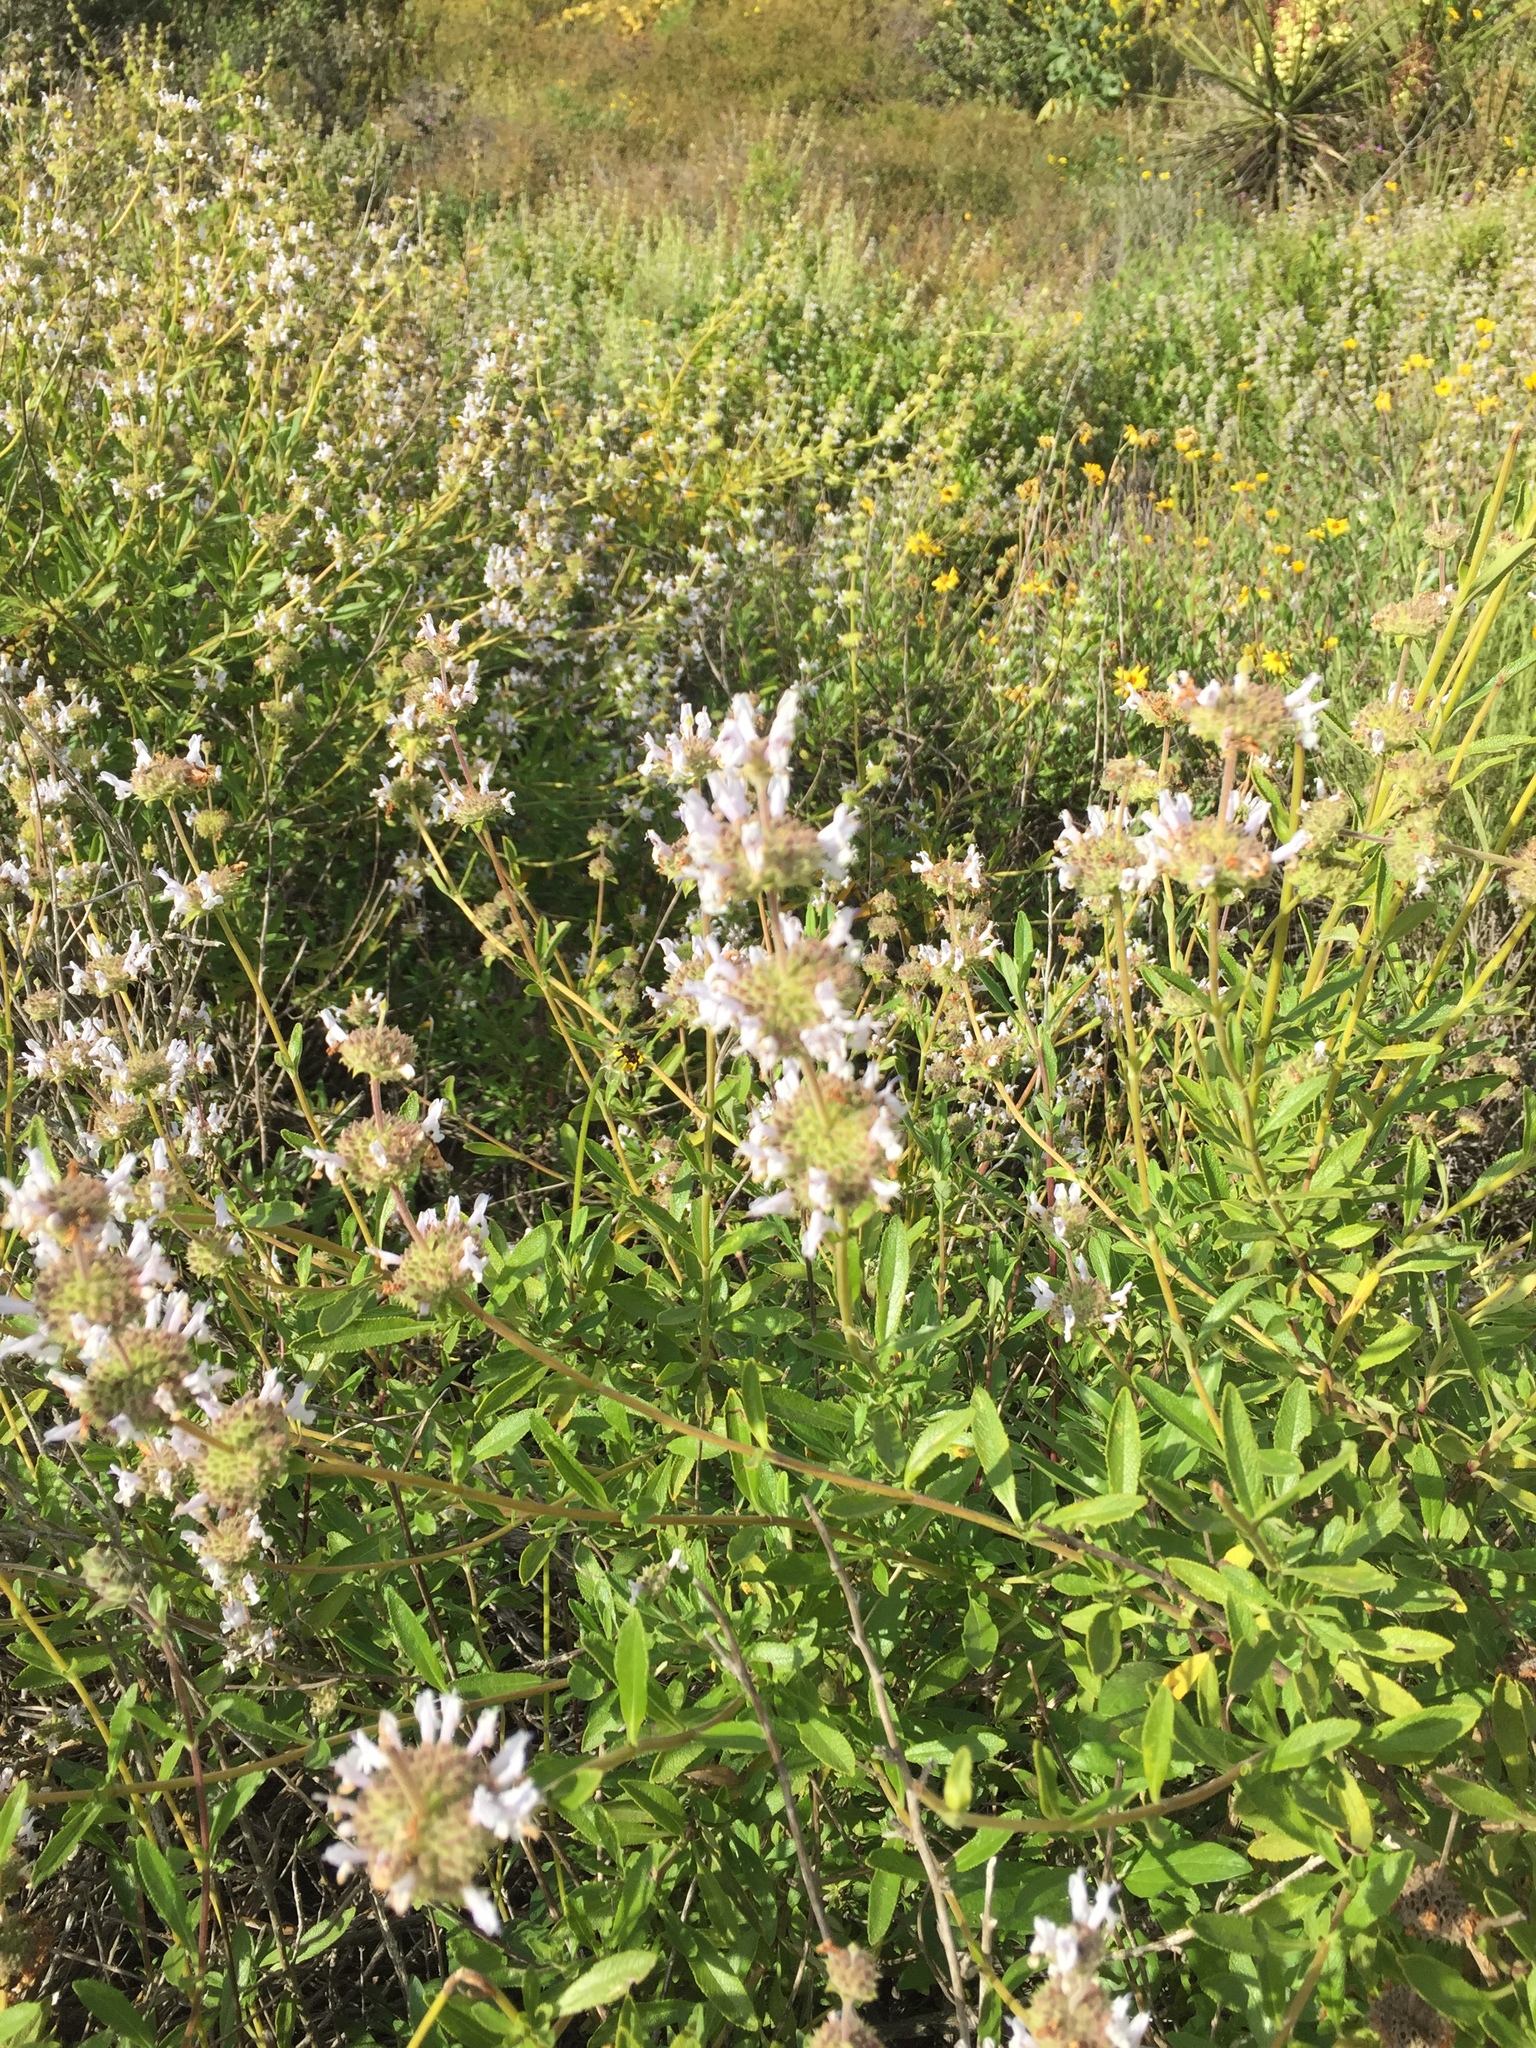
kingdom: Plantae
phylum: Tracheophyta
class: Magnoliopsida
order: Lamiales
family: Lamiaceae
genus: Salvia
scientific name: Salvia mellifera
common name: Black sage
